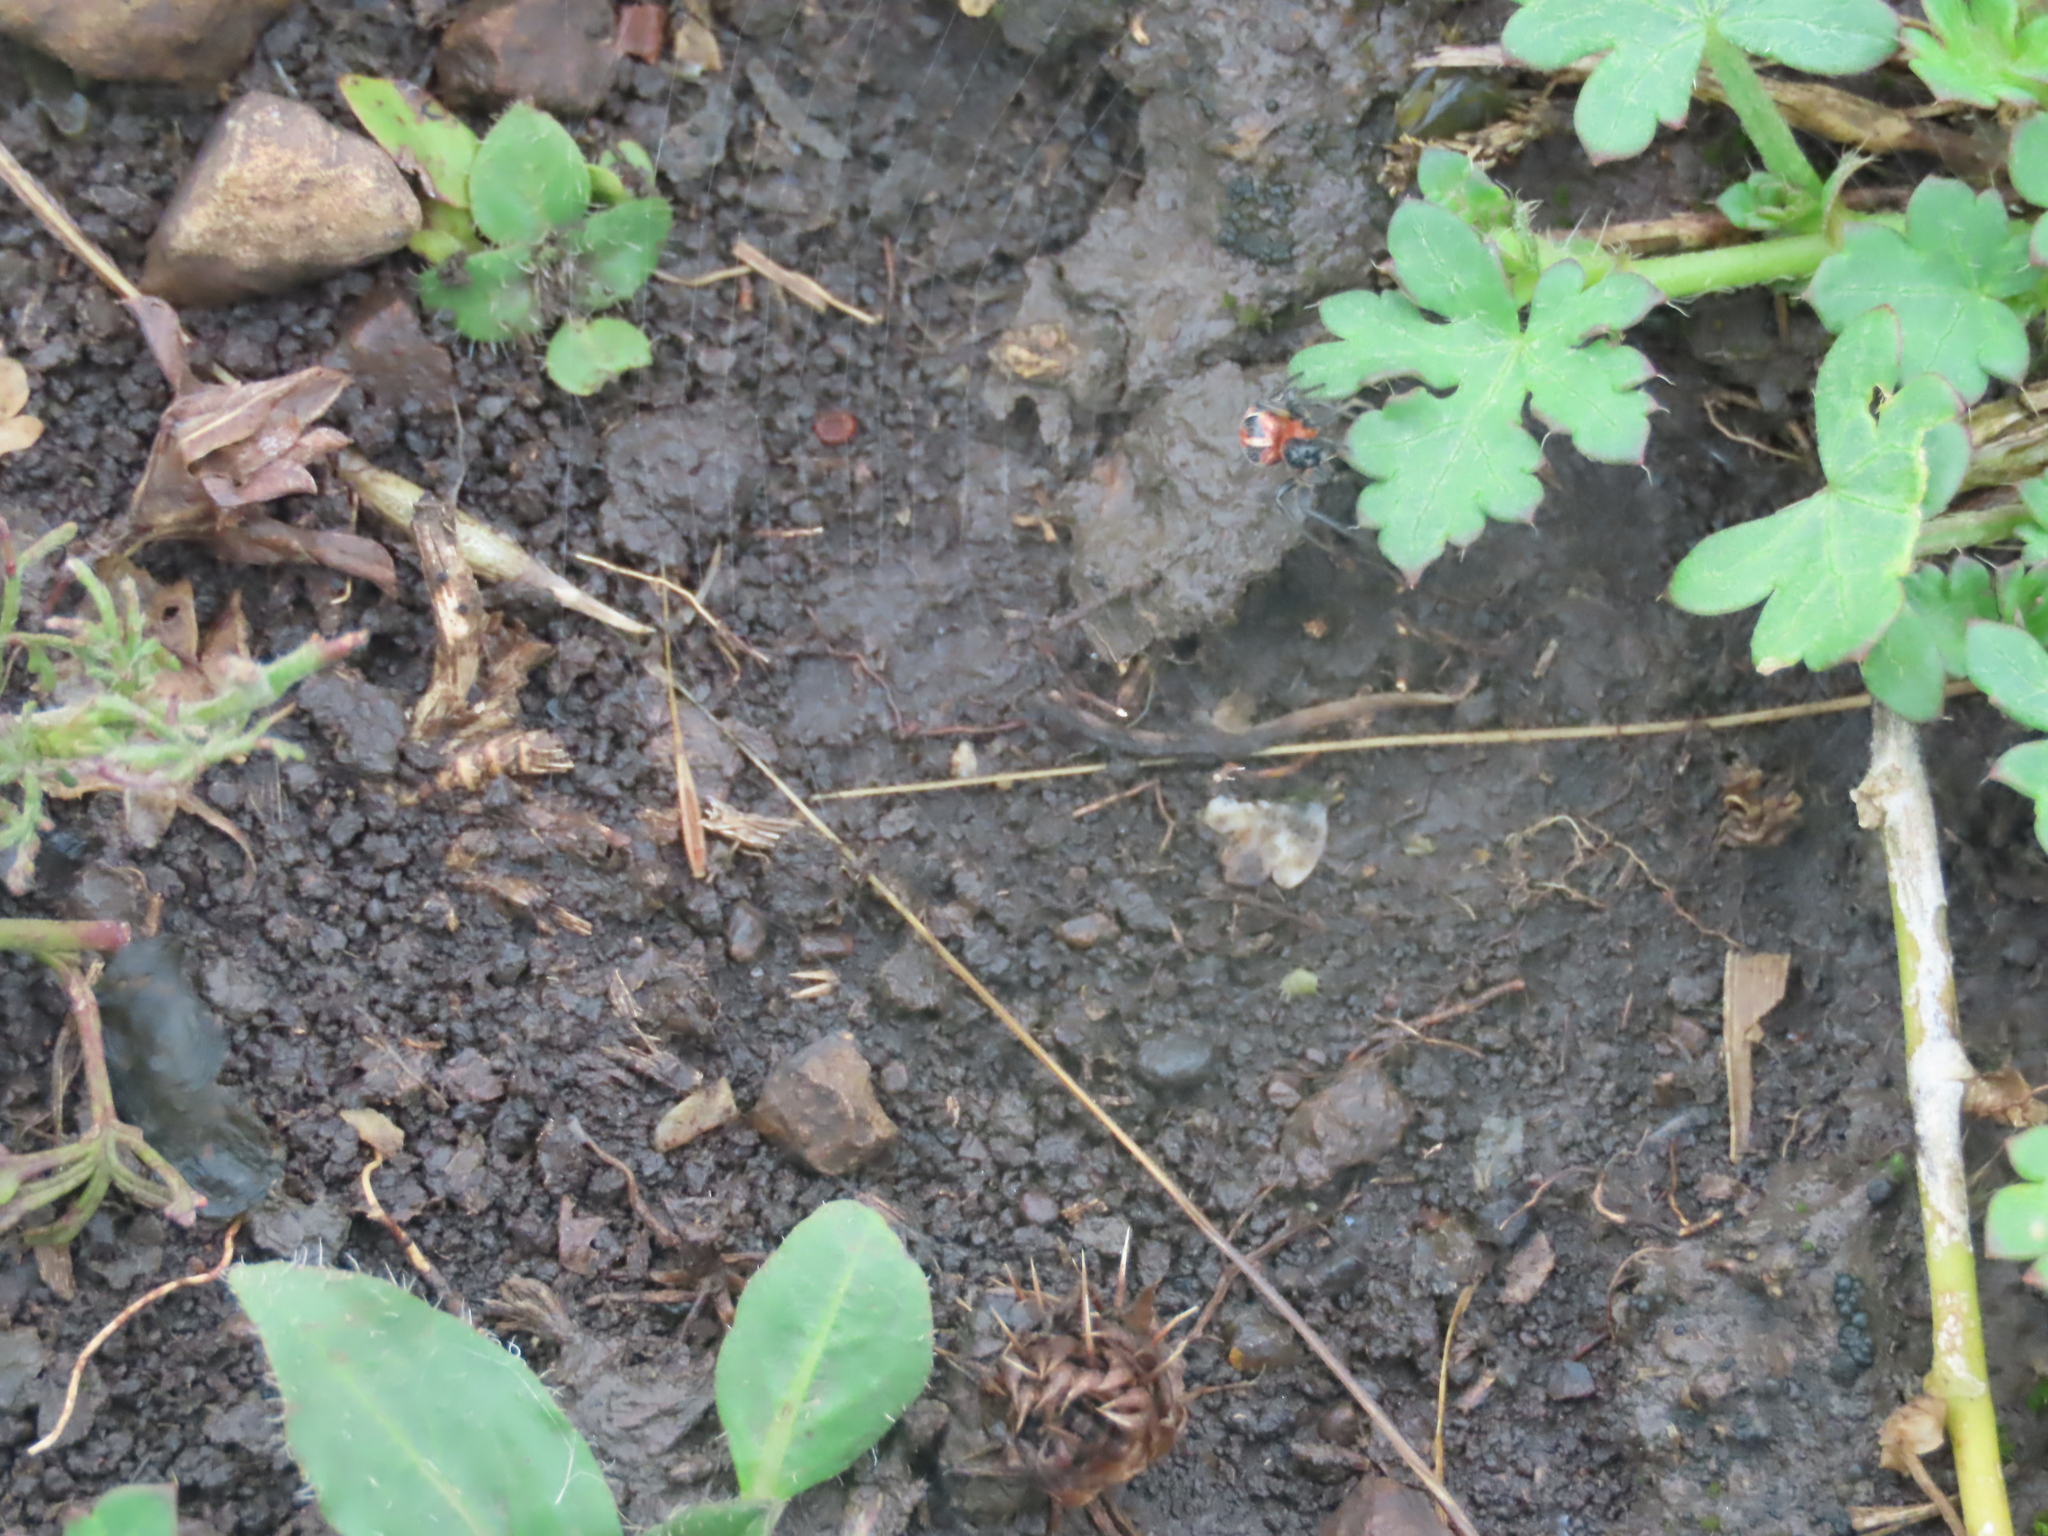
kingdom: Animalia
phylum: Arthropoda
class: Arachnida
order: Araneae
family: Araneidae
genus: Alpaida
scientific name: Alpaida versicolor
